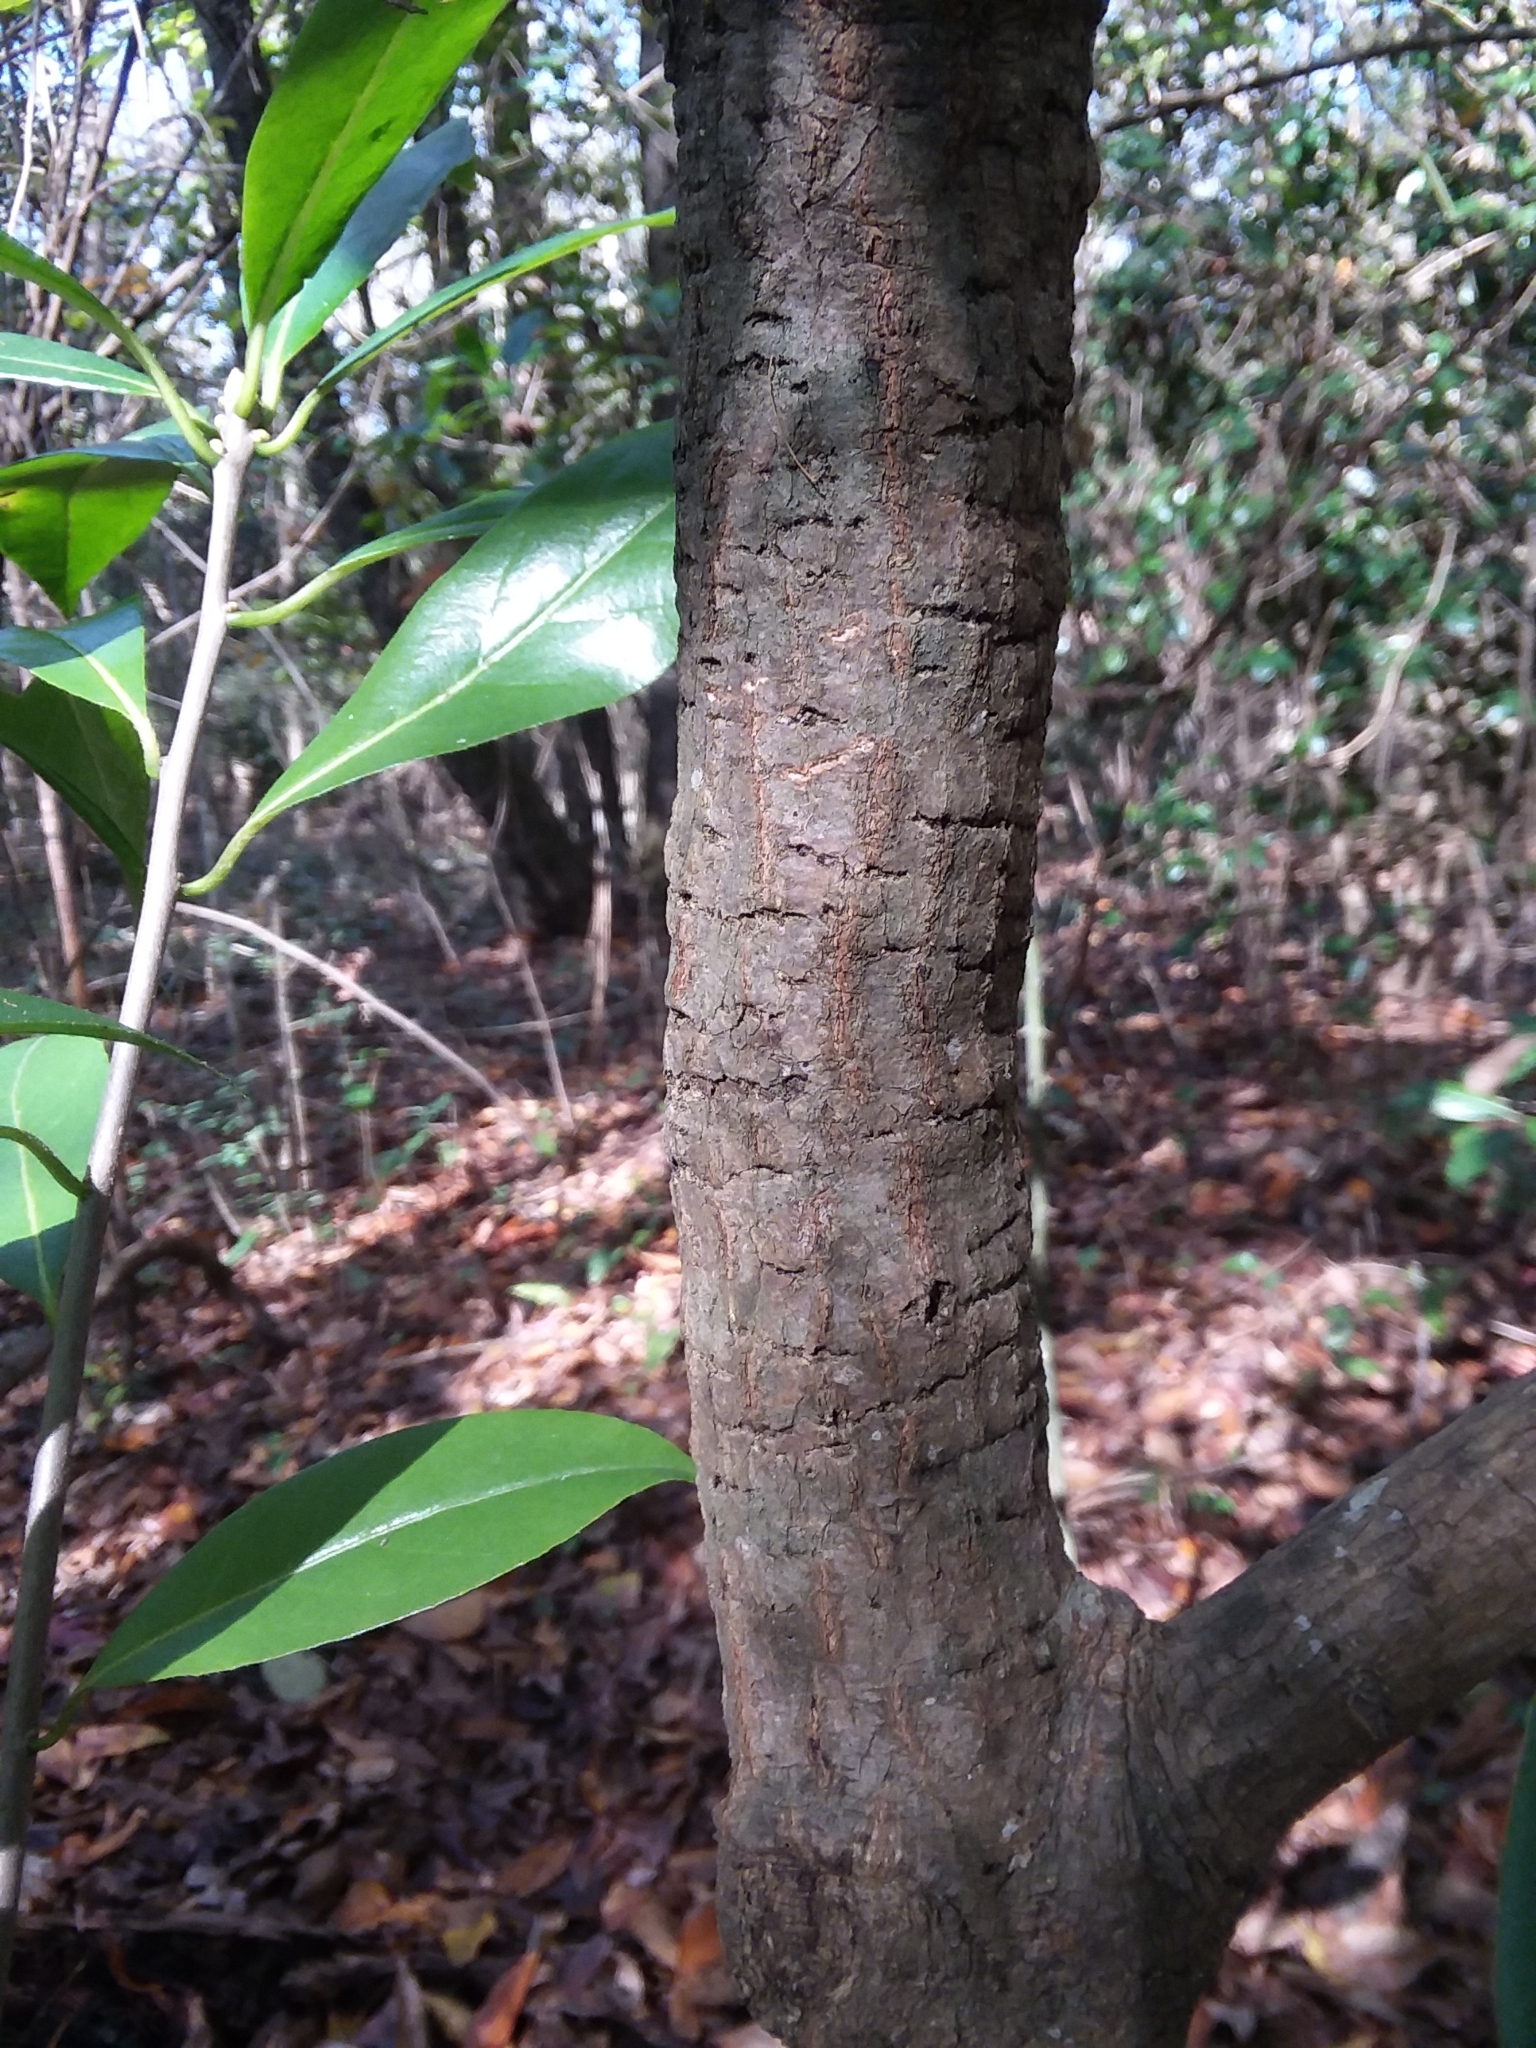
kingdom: Plantae
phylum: Tracheophyta
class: Magnoliopsida
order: Ericales
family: Symplocaceae
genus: Symplocos
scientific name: Symplocos tinctoria
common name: Horse-sugar
